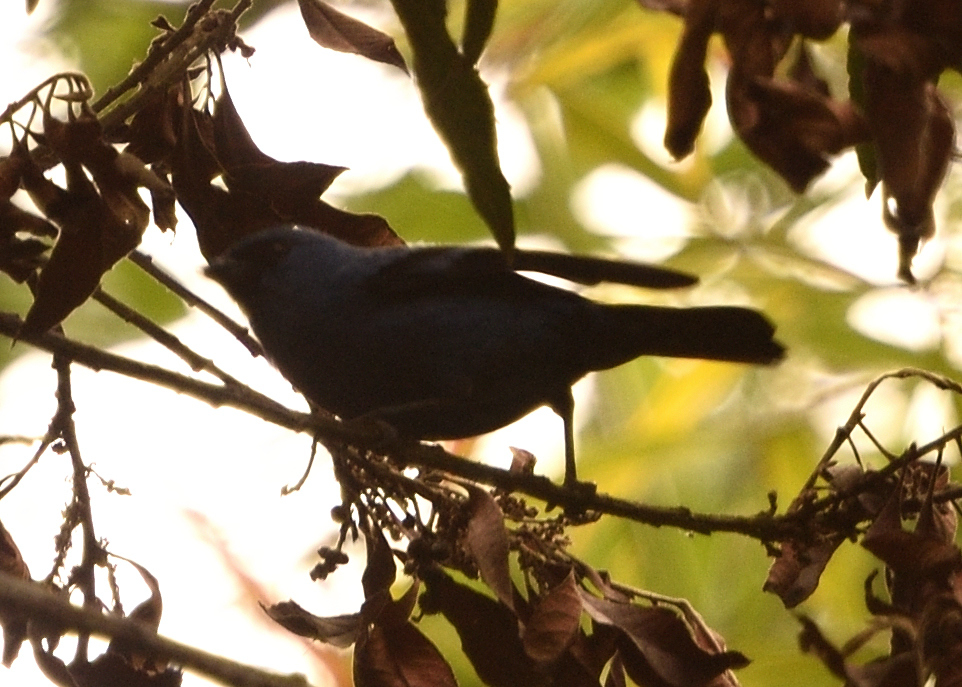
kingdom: Animalia
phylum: Chordata
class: Aves
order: Passeriformes
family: Thraupidae
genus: Tangara
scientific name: Tangara vassorii
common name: Blue-and-black tanager
